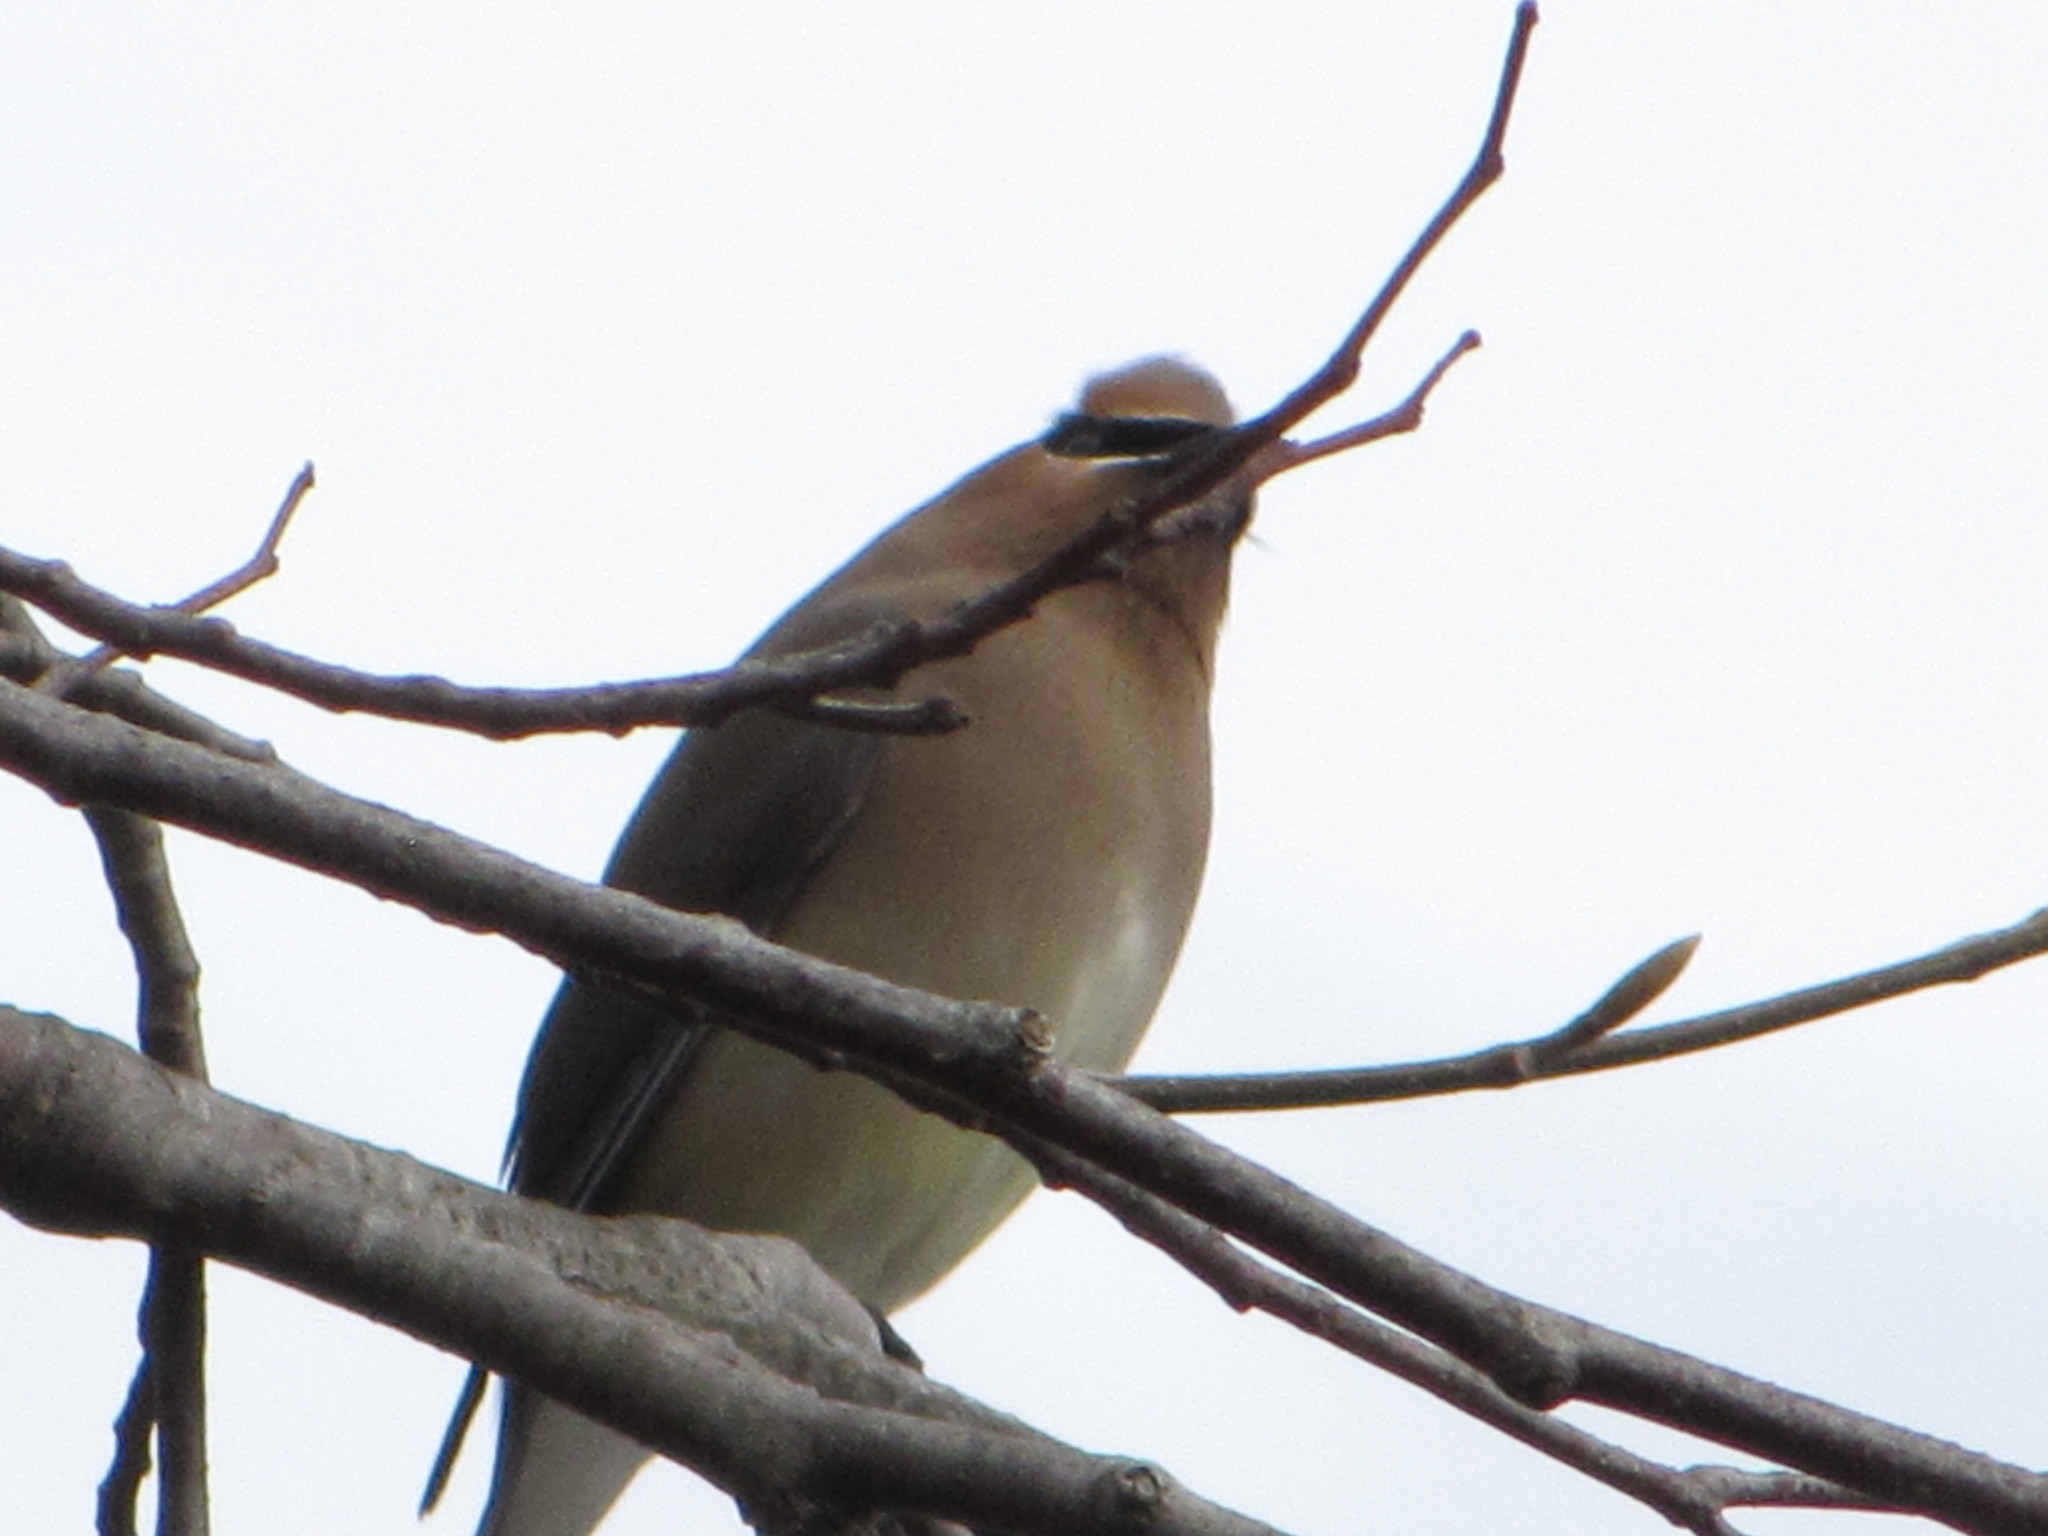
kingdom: Animalia
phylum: Chordata
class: Aves
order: Passeriformes
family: Bombycillidae
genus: Bombycilla
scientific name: Bombycilla cedrorum
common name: Cedar waxwing
